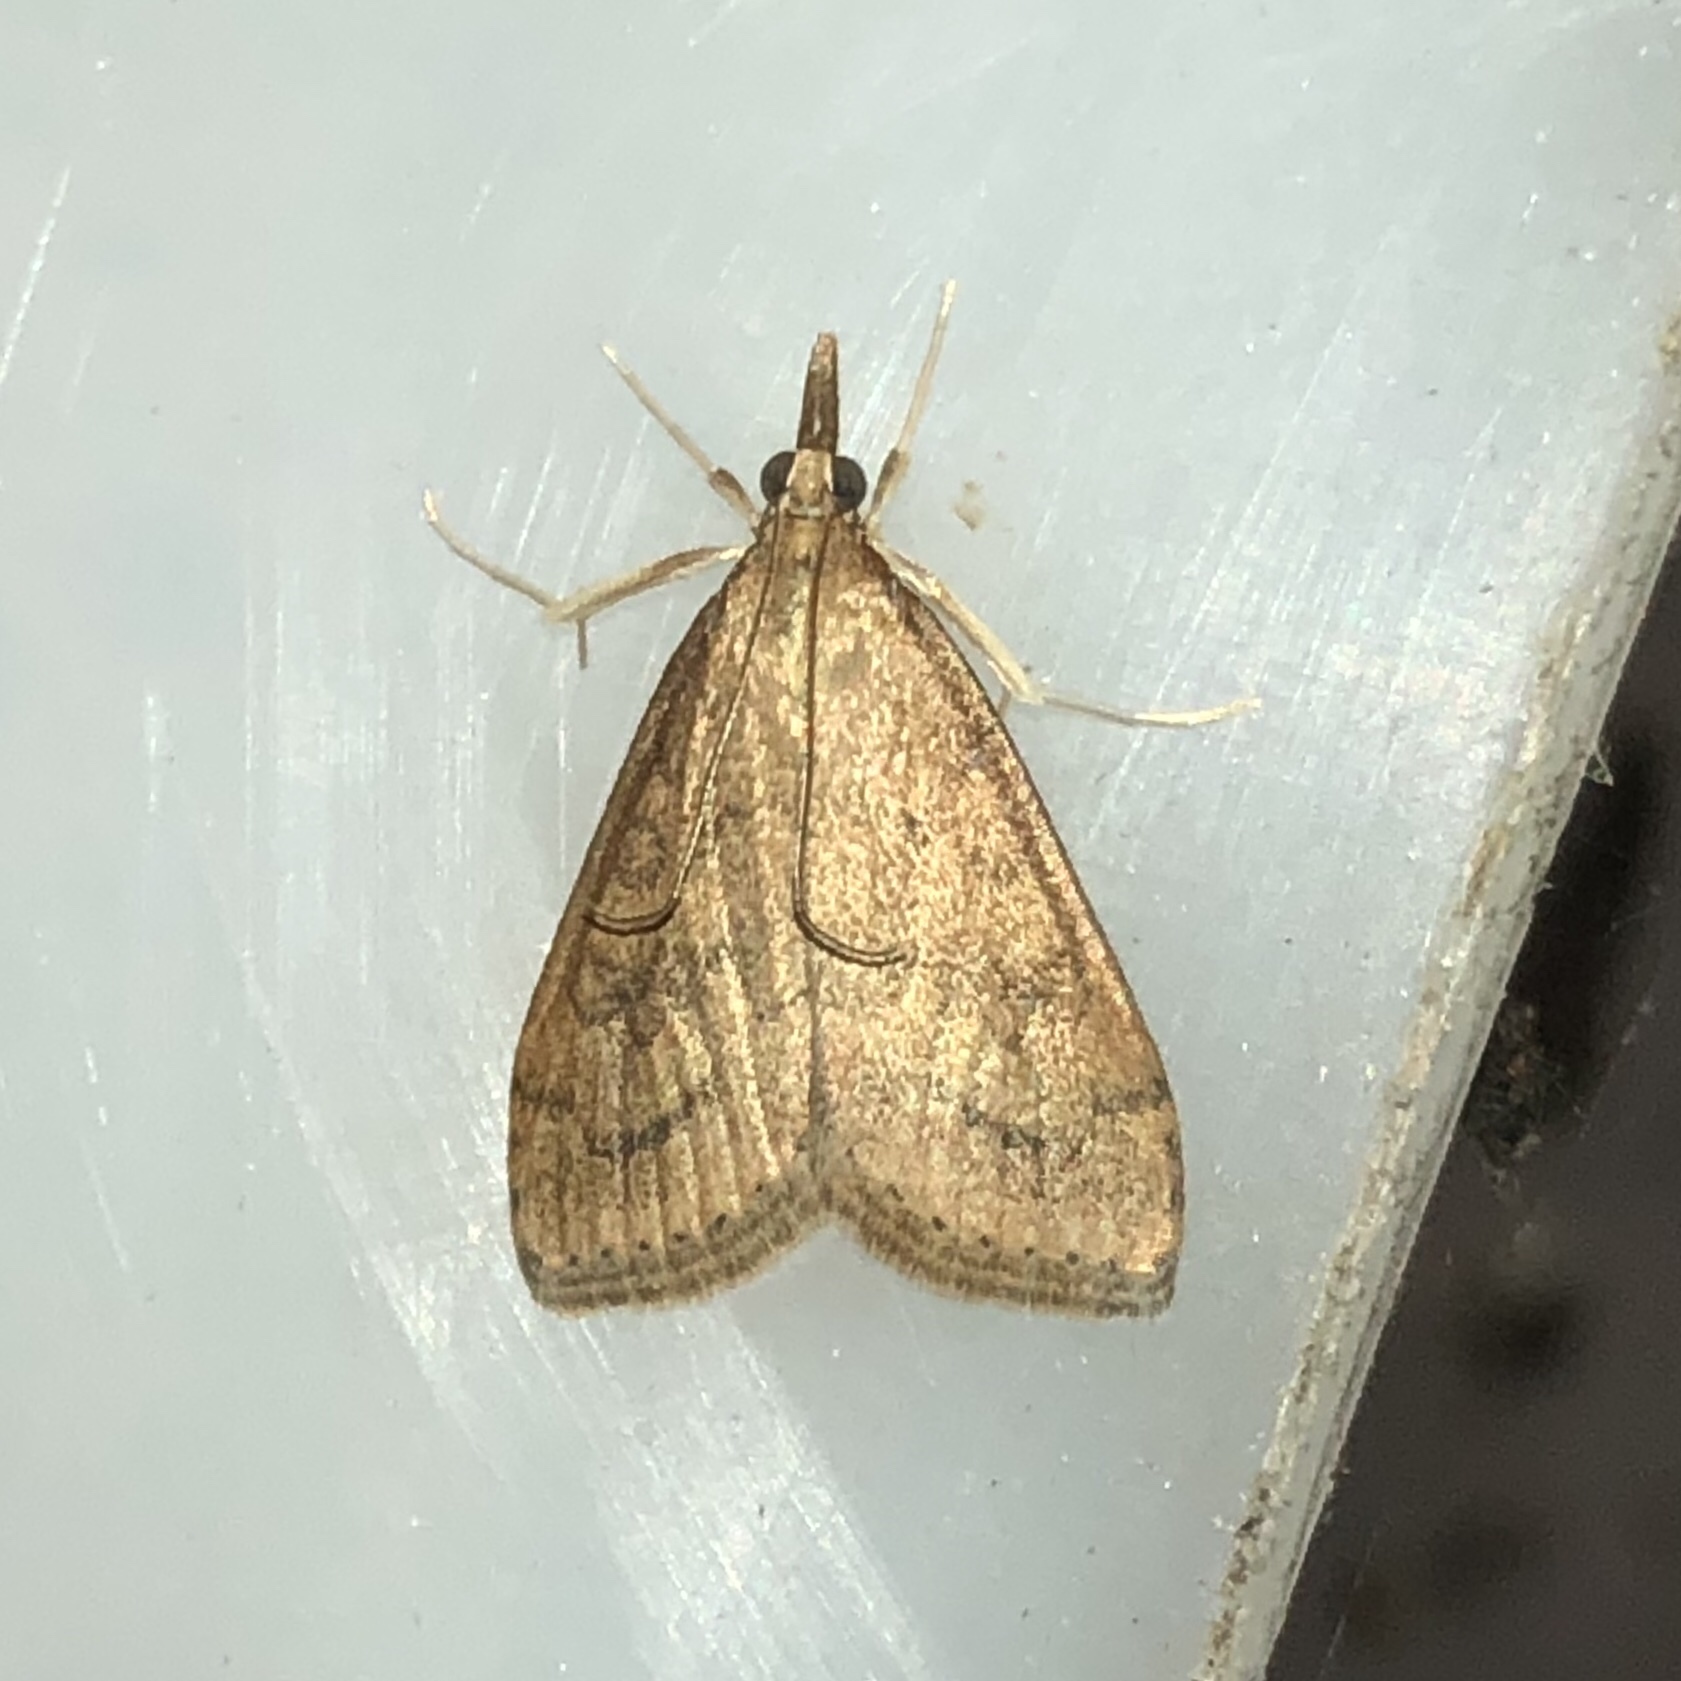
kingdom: Animalia
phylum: Arthropoda
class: Insecta
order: Lepidoptera
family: Crambidae
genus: Udea
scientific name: Udea rubigalis
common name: Celery leaftier moth
